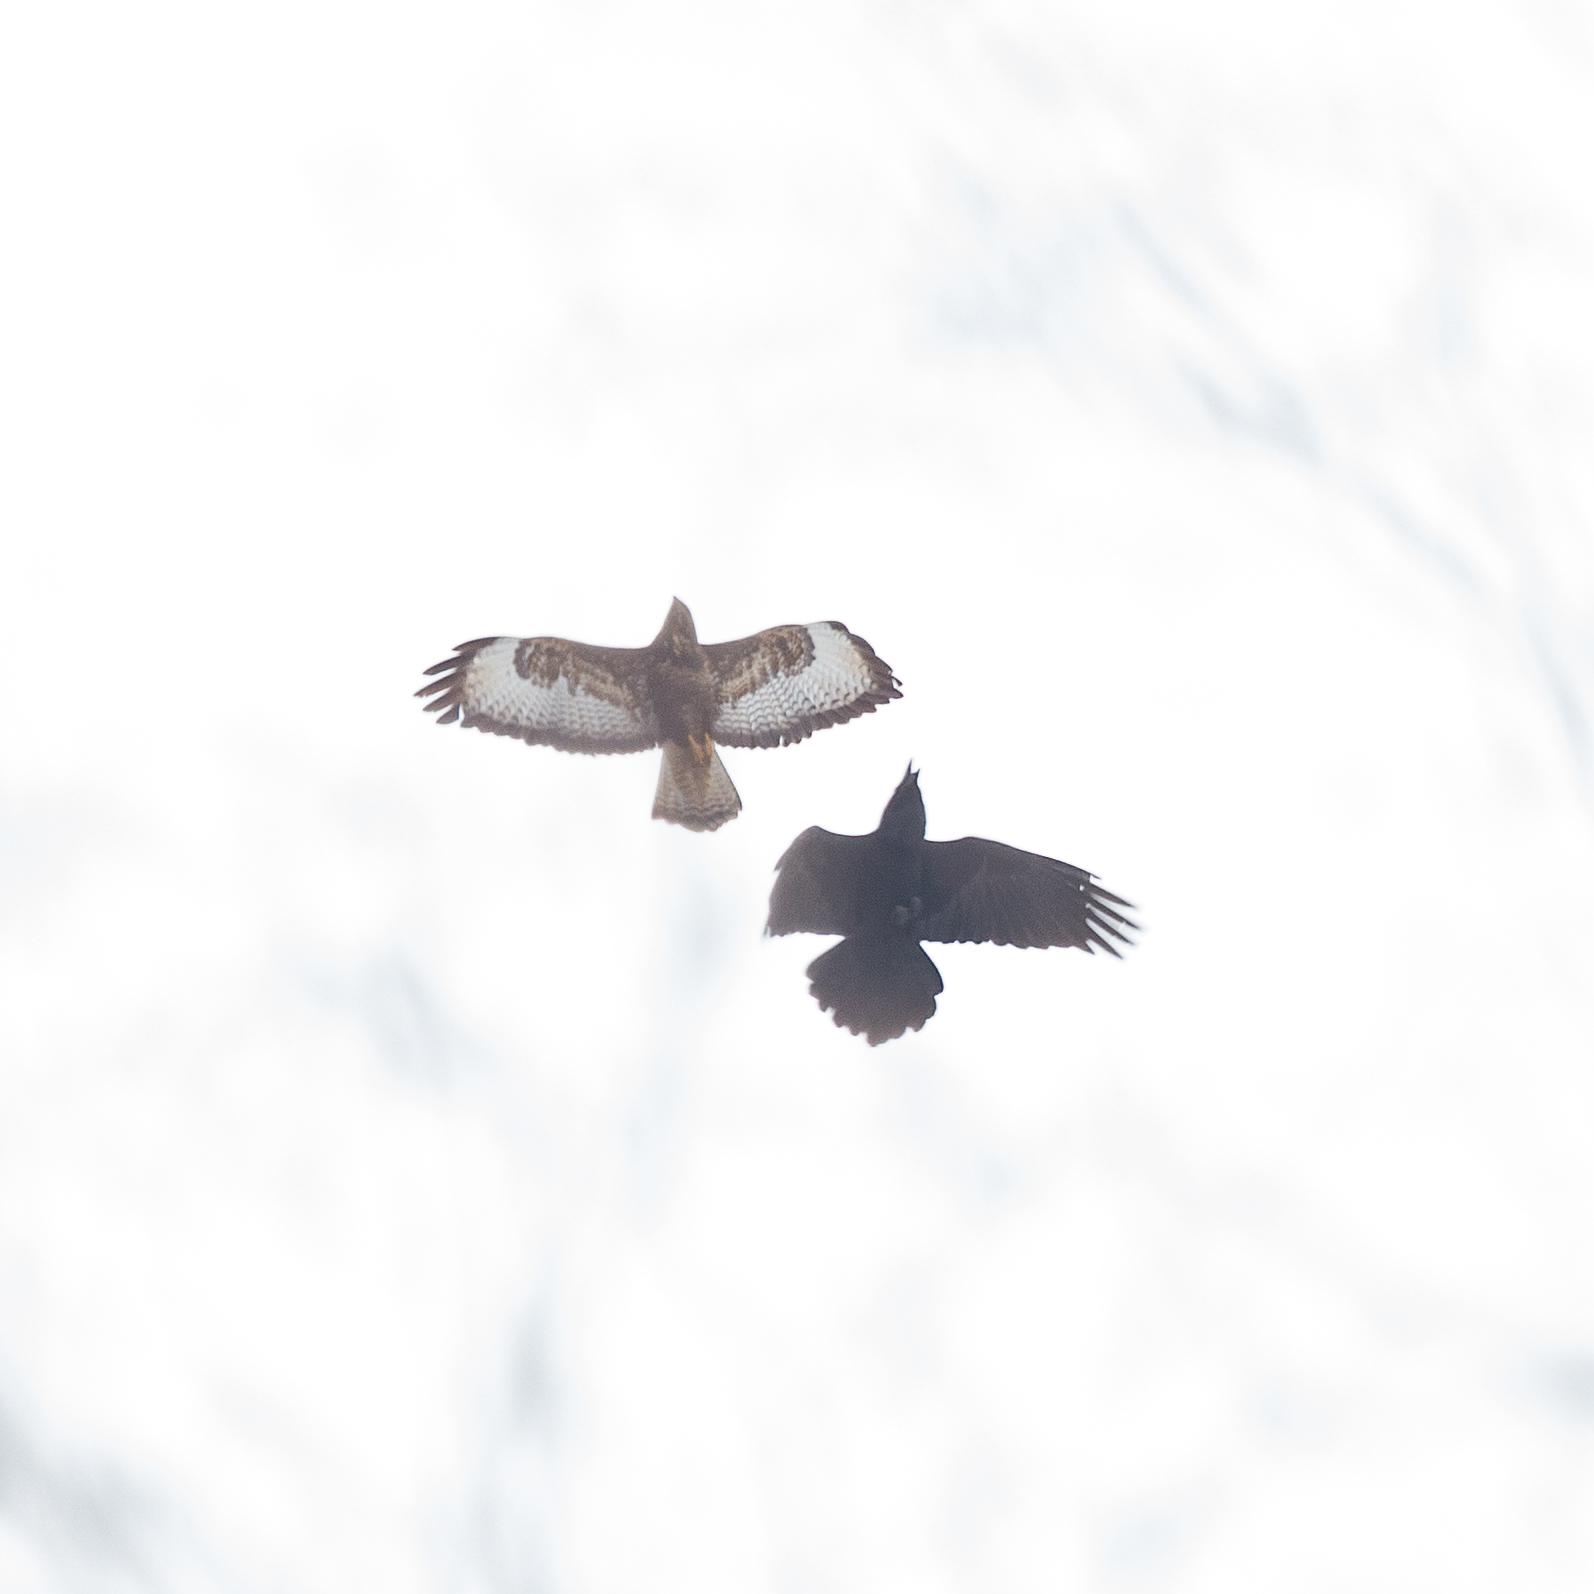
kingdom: Animalia
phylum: Chordata
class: Aves
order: Passeriformes
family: Corvidae
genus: Corvus
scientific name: Corvus corax
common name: Common raven
